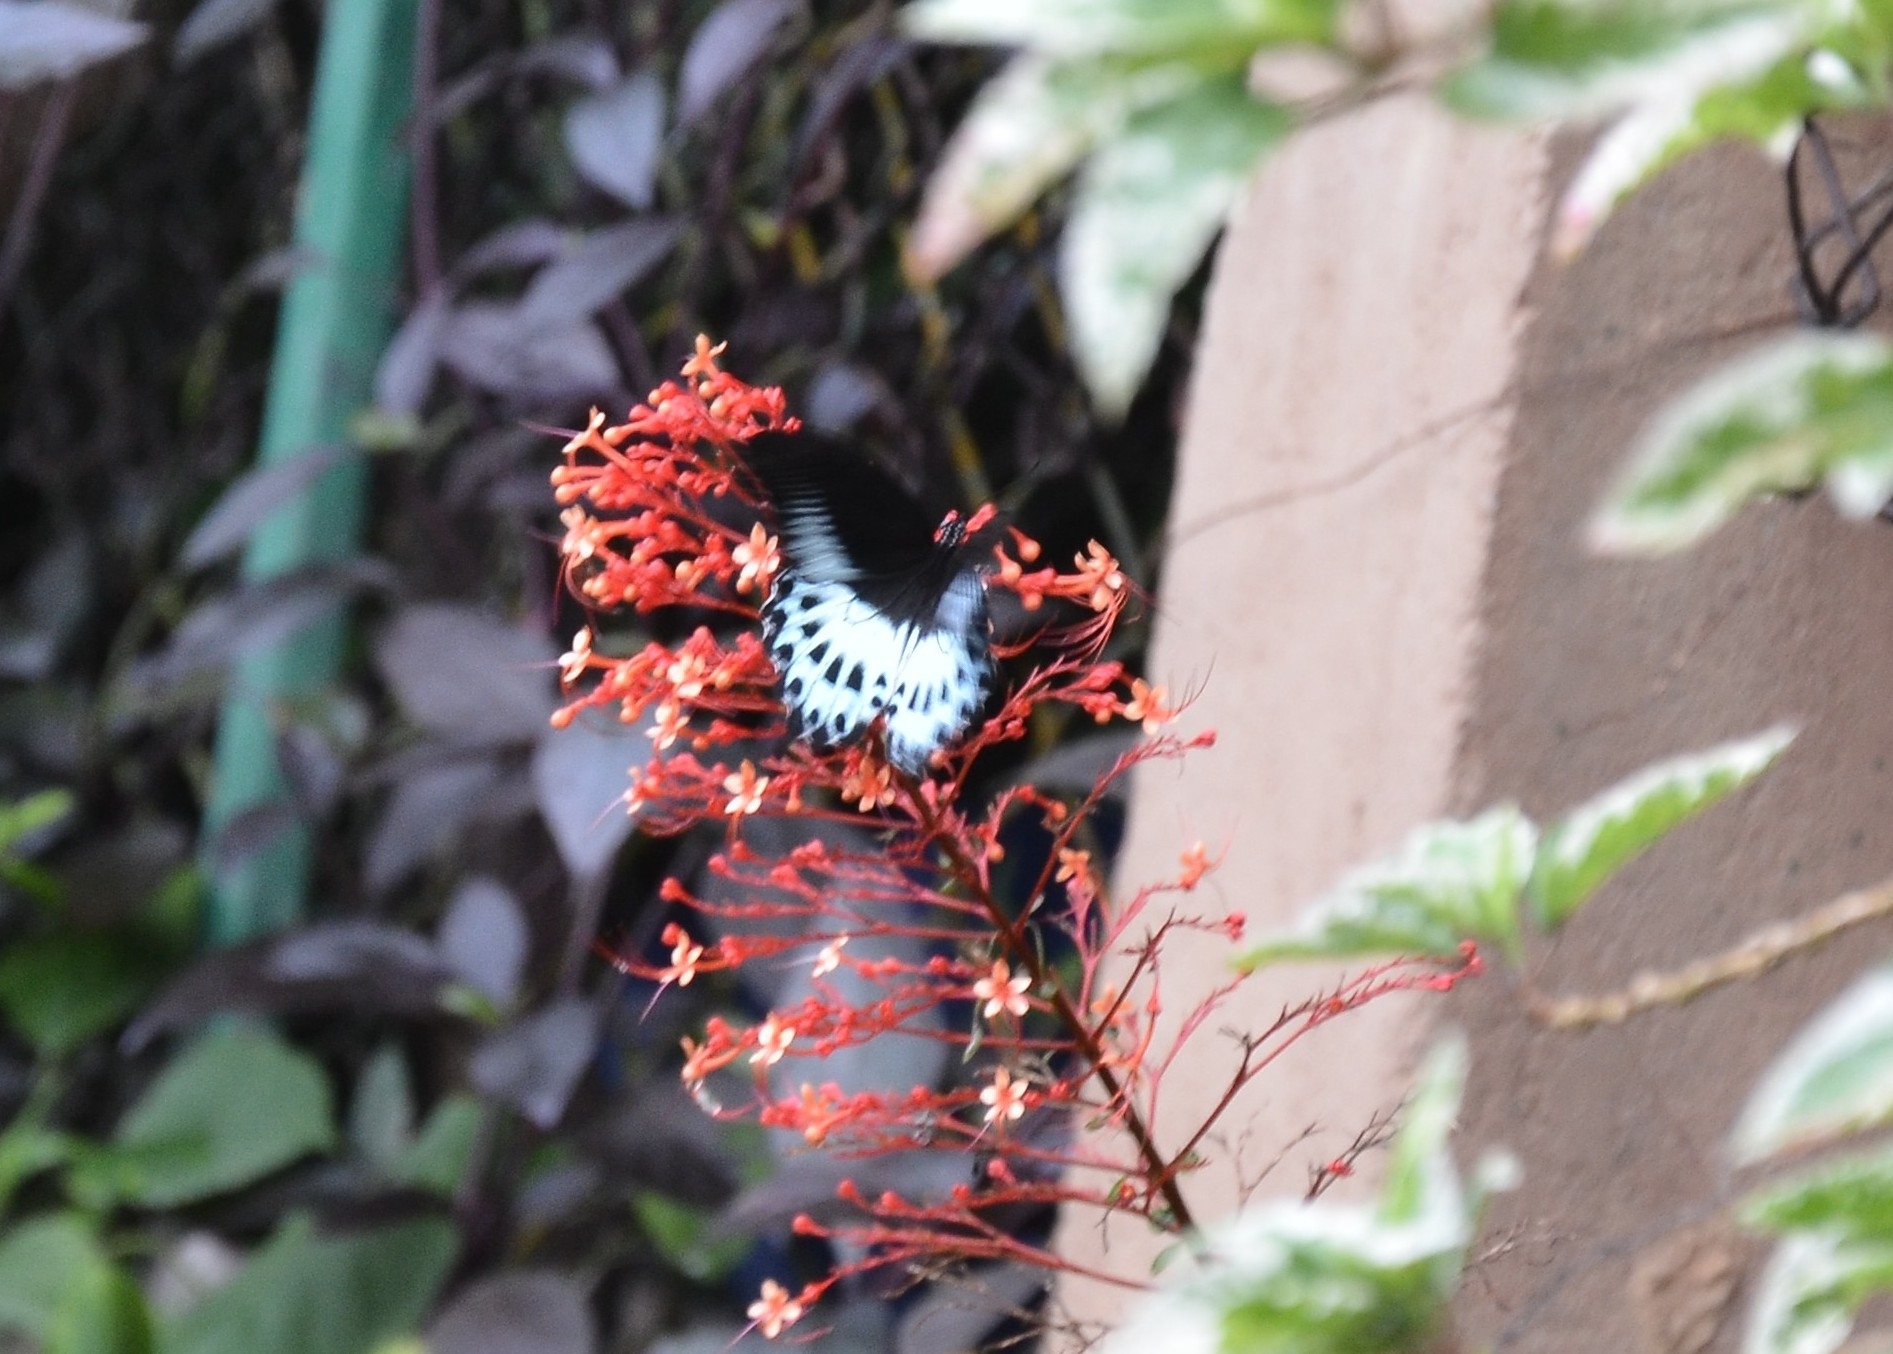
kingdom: Animalia
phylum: Arthropoda
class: Insecta
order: Lepidoptera
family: Papilionidae
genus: Papilio
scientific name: Papilio memnon
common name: Great mormon
